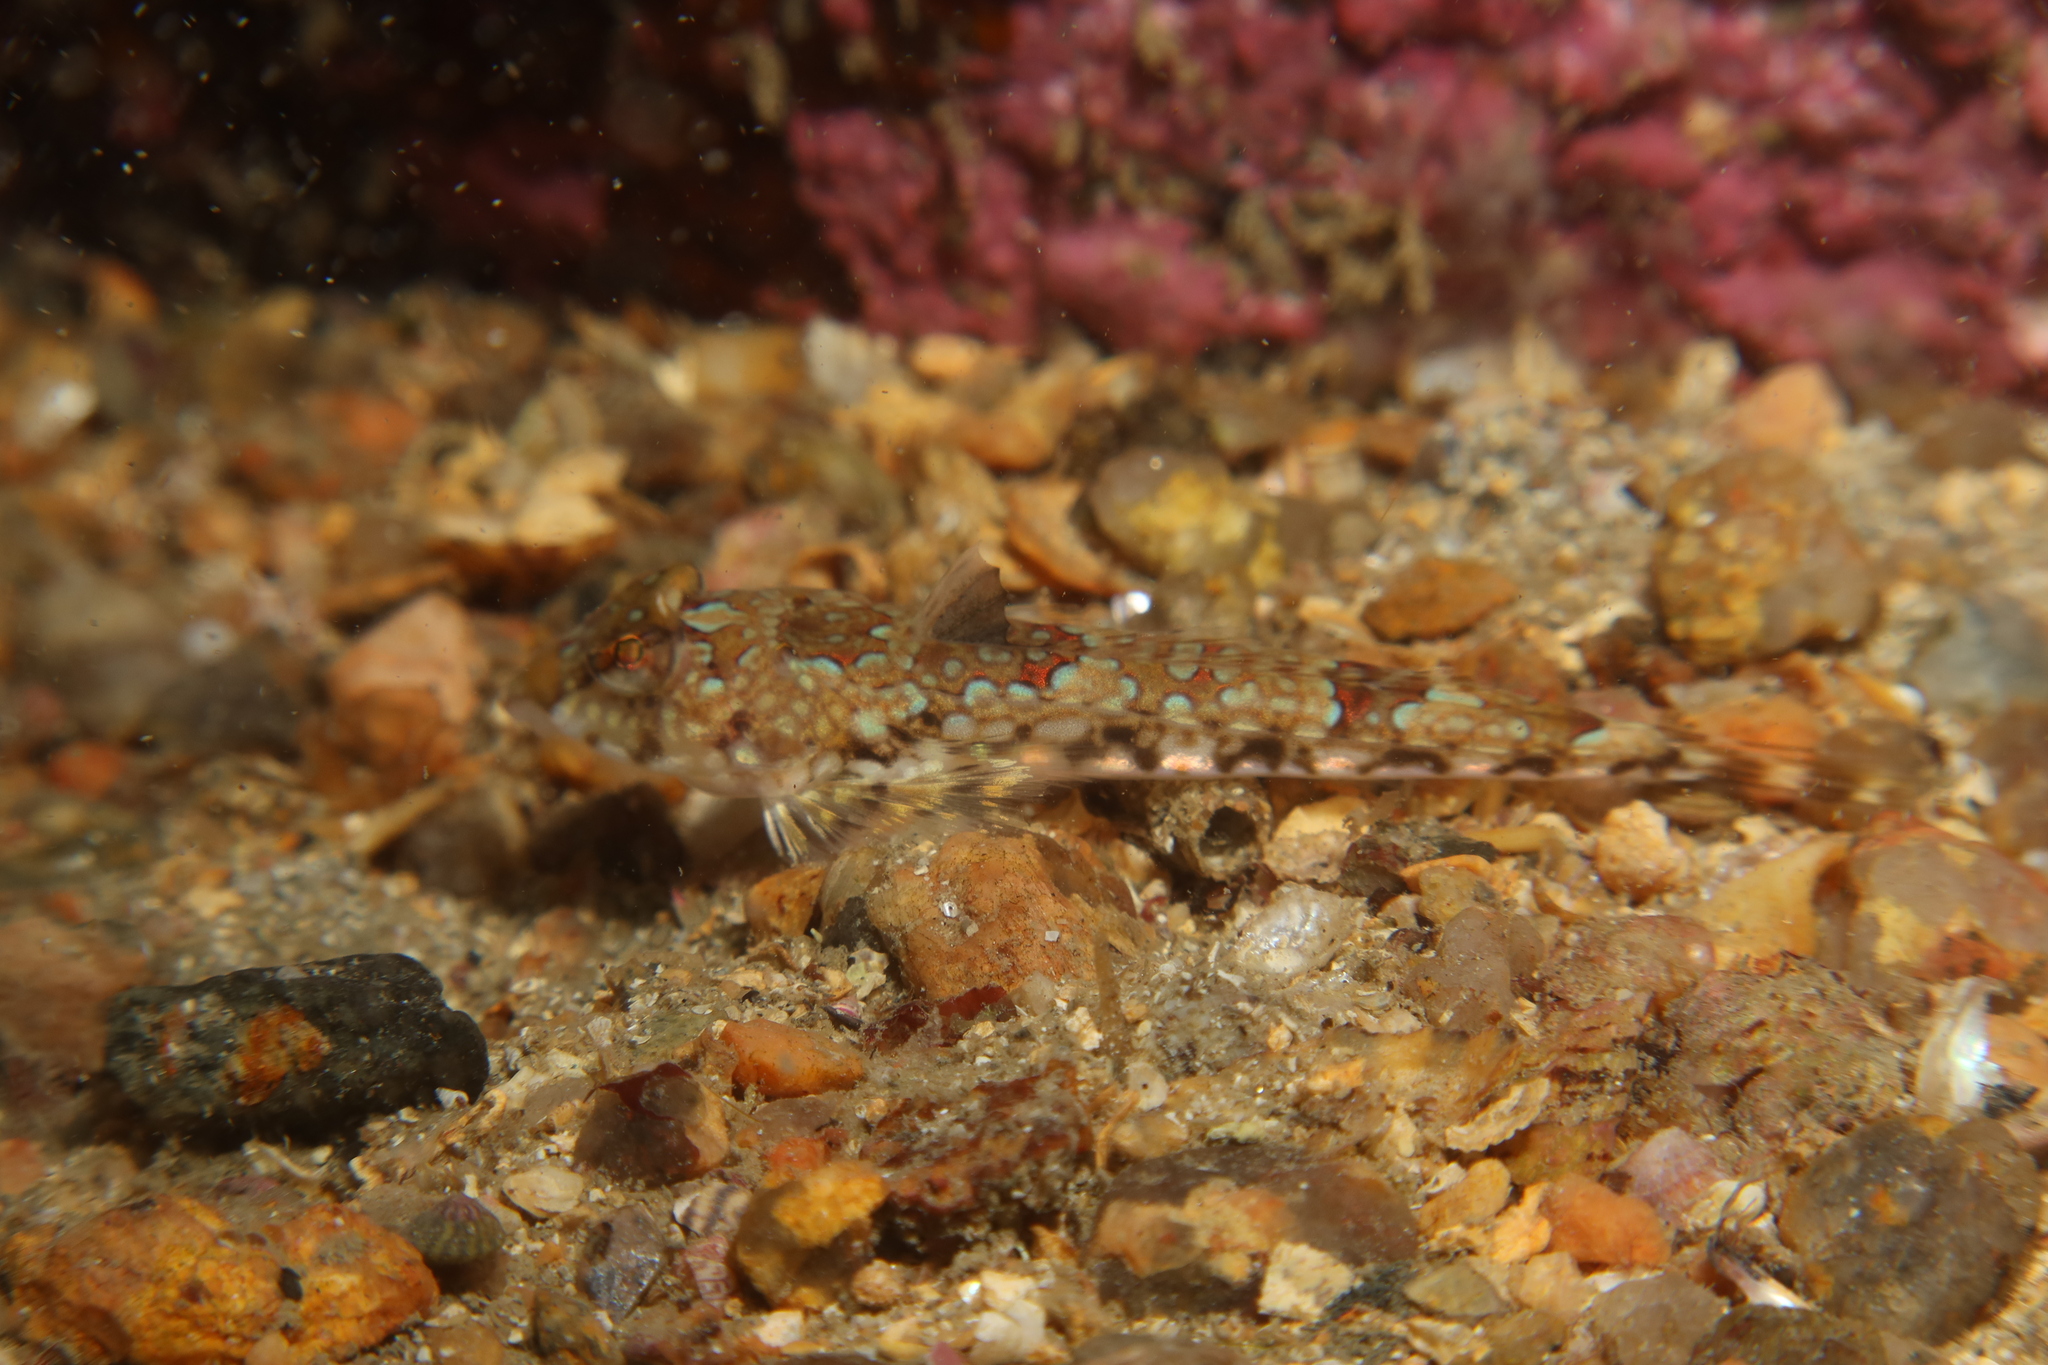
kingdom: Animalia
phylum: Chordata
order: Perciformes
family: Callionymidae
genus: Callionymus
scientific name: Callionymus lyra
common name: Dragonet
